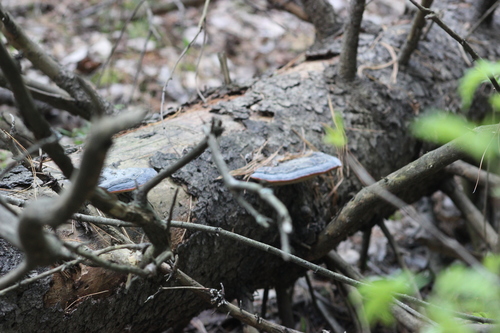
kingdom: Fungi
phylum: Basidiomycota
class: Agaricomycetes
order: Polyporales
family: Fomitopsidaceae
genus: Fomitopsis
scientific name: Fomitopsis pinicola
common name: Red-belted bracket
